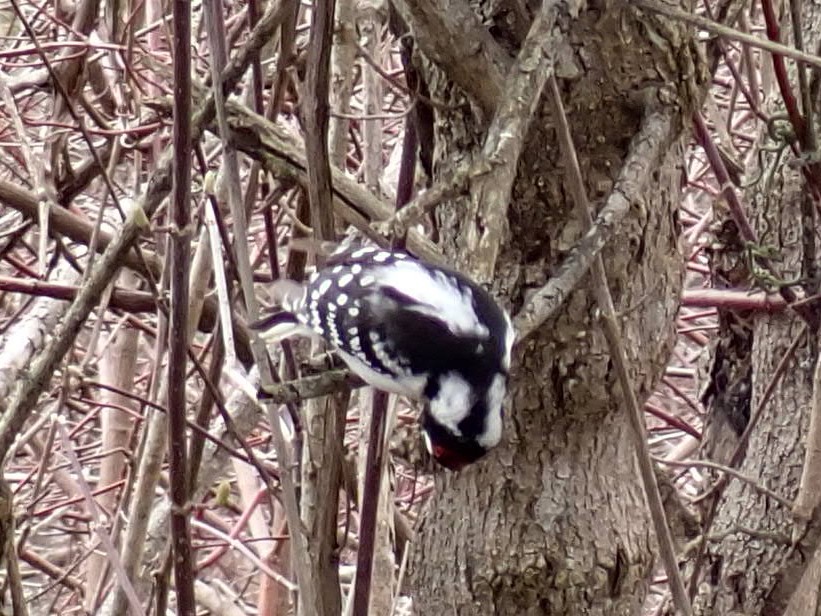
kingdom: Animalia
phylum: Chordata
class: Aves
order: Piciformes
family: Picidae
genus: Dryobates
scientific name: Dryobates pubescens
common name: Downy woodpecker
